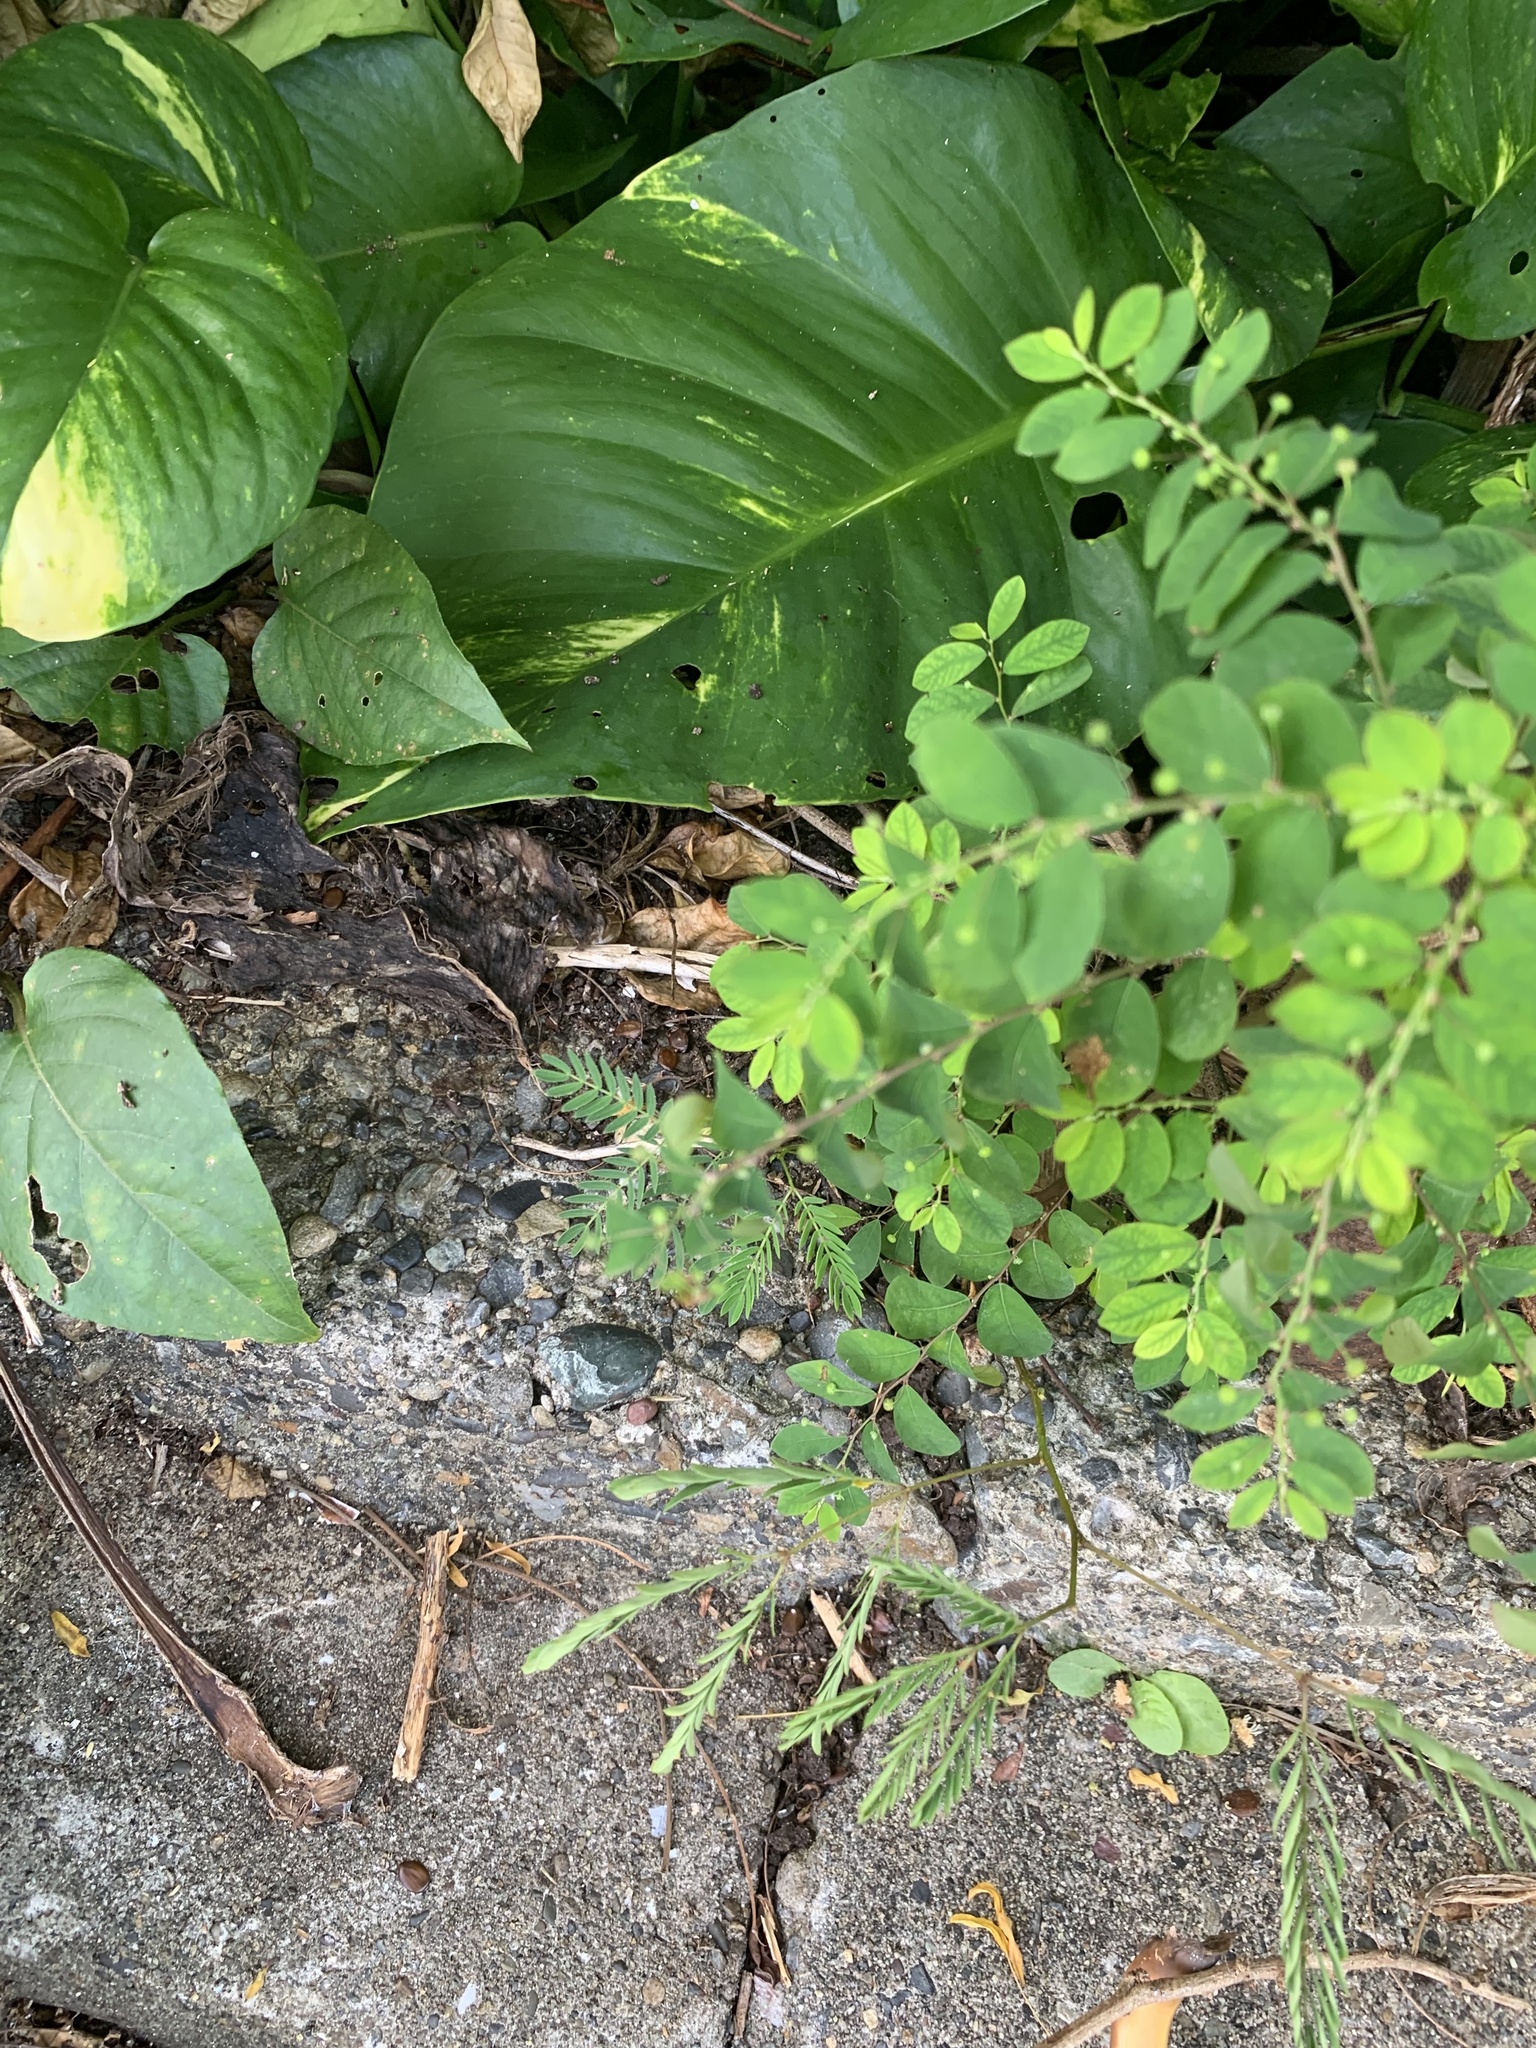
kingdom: Plantae
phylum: Tracheophyta
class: Magnoliopsida
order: Malpighiales
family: Phyllanthaceae
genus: Phyllanthus
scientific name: Phyllanthus tenellus
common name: Mascarene island leaf-flower
